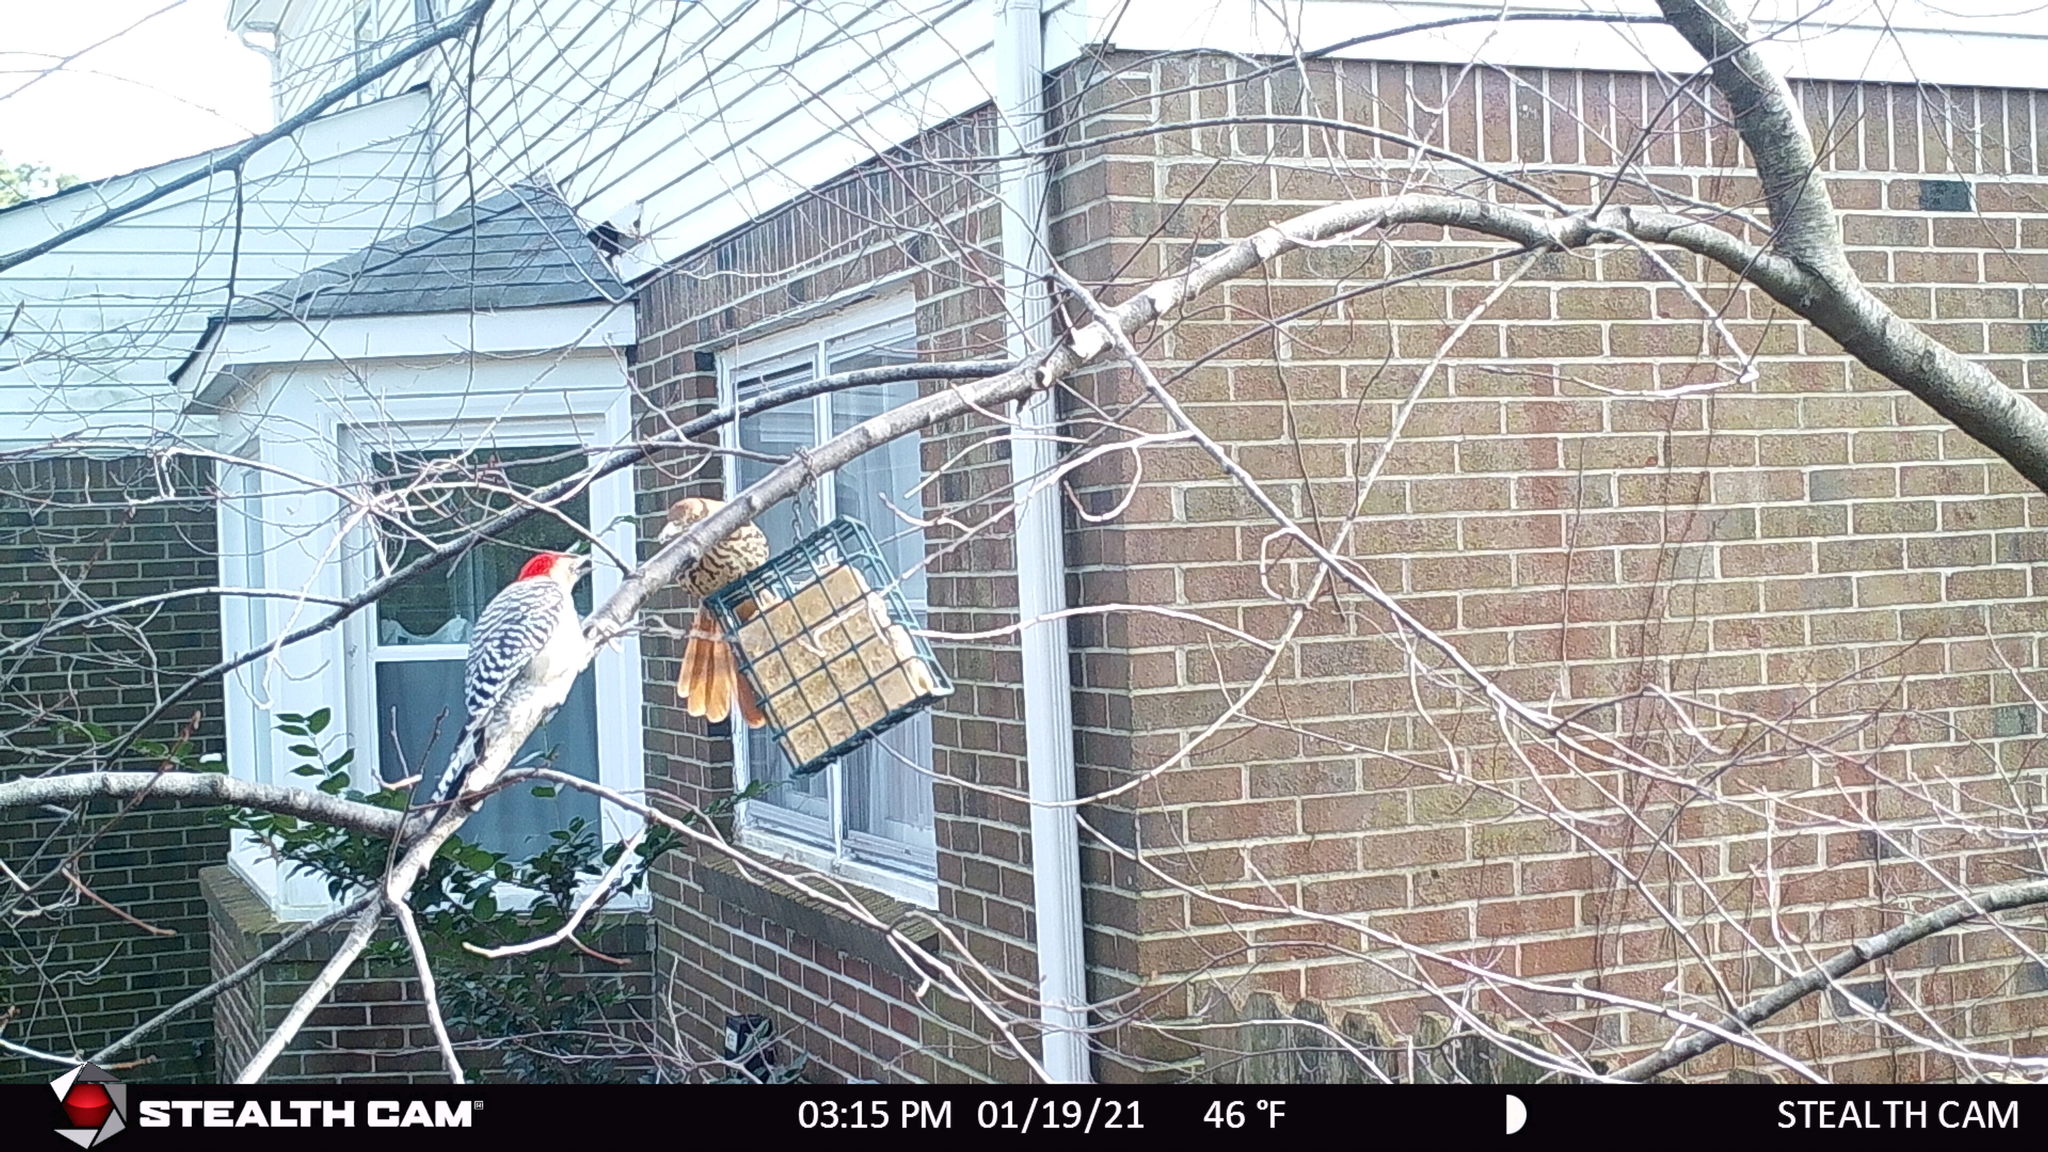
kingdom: Animalia
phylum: Chordata
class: Aves
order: Piciformes
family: Picidae
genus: Melanerpes
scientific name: Melanerpes carolinus
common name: Red-bellied woodpecker
